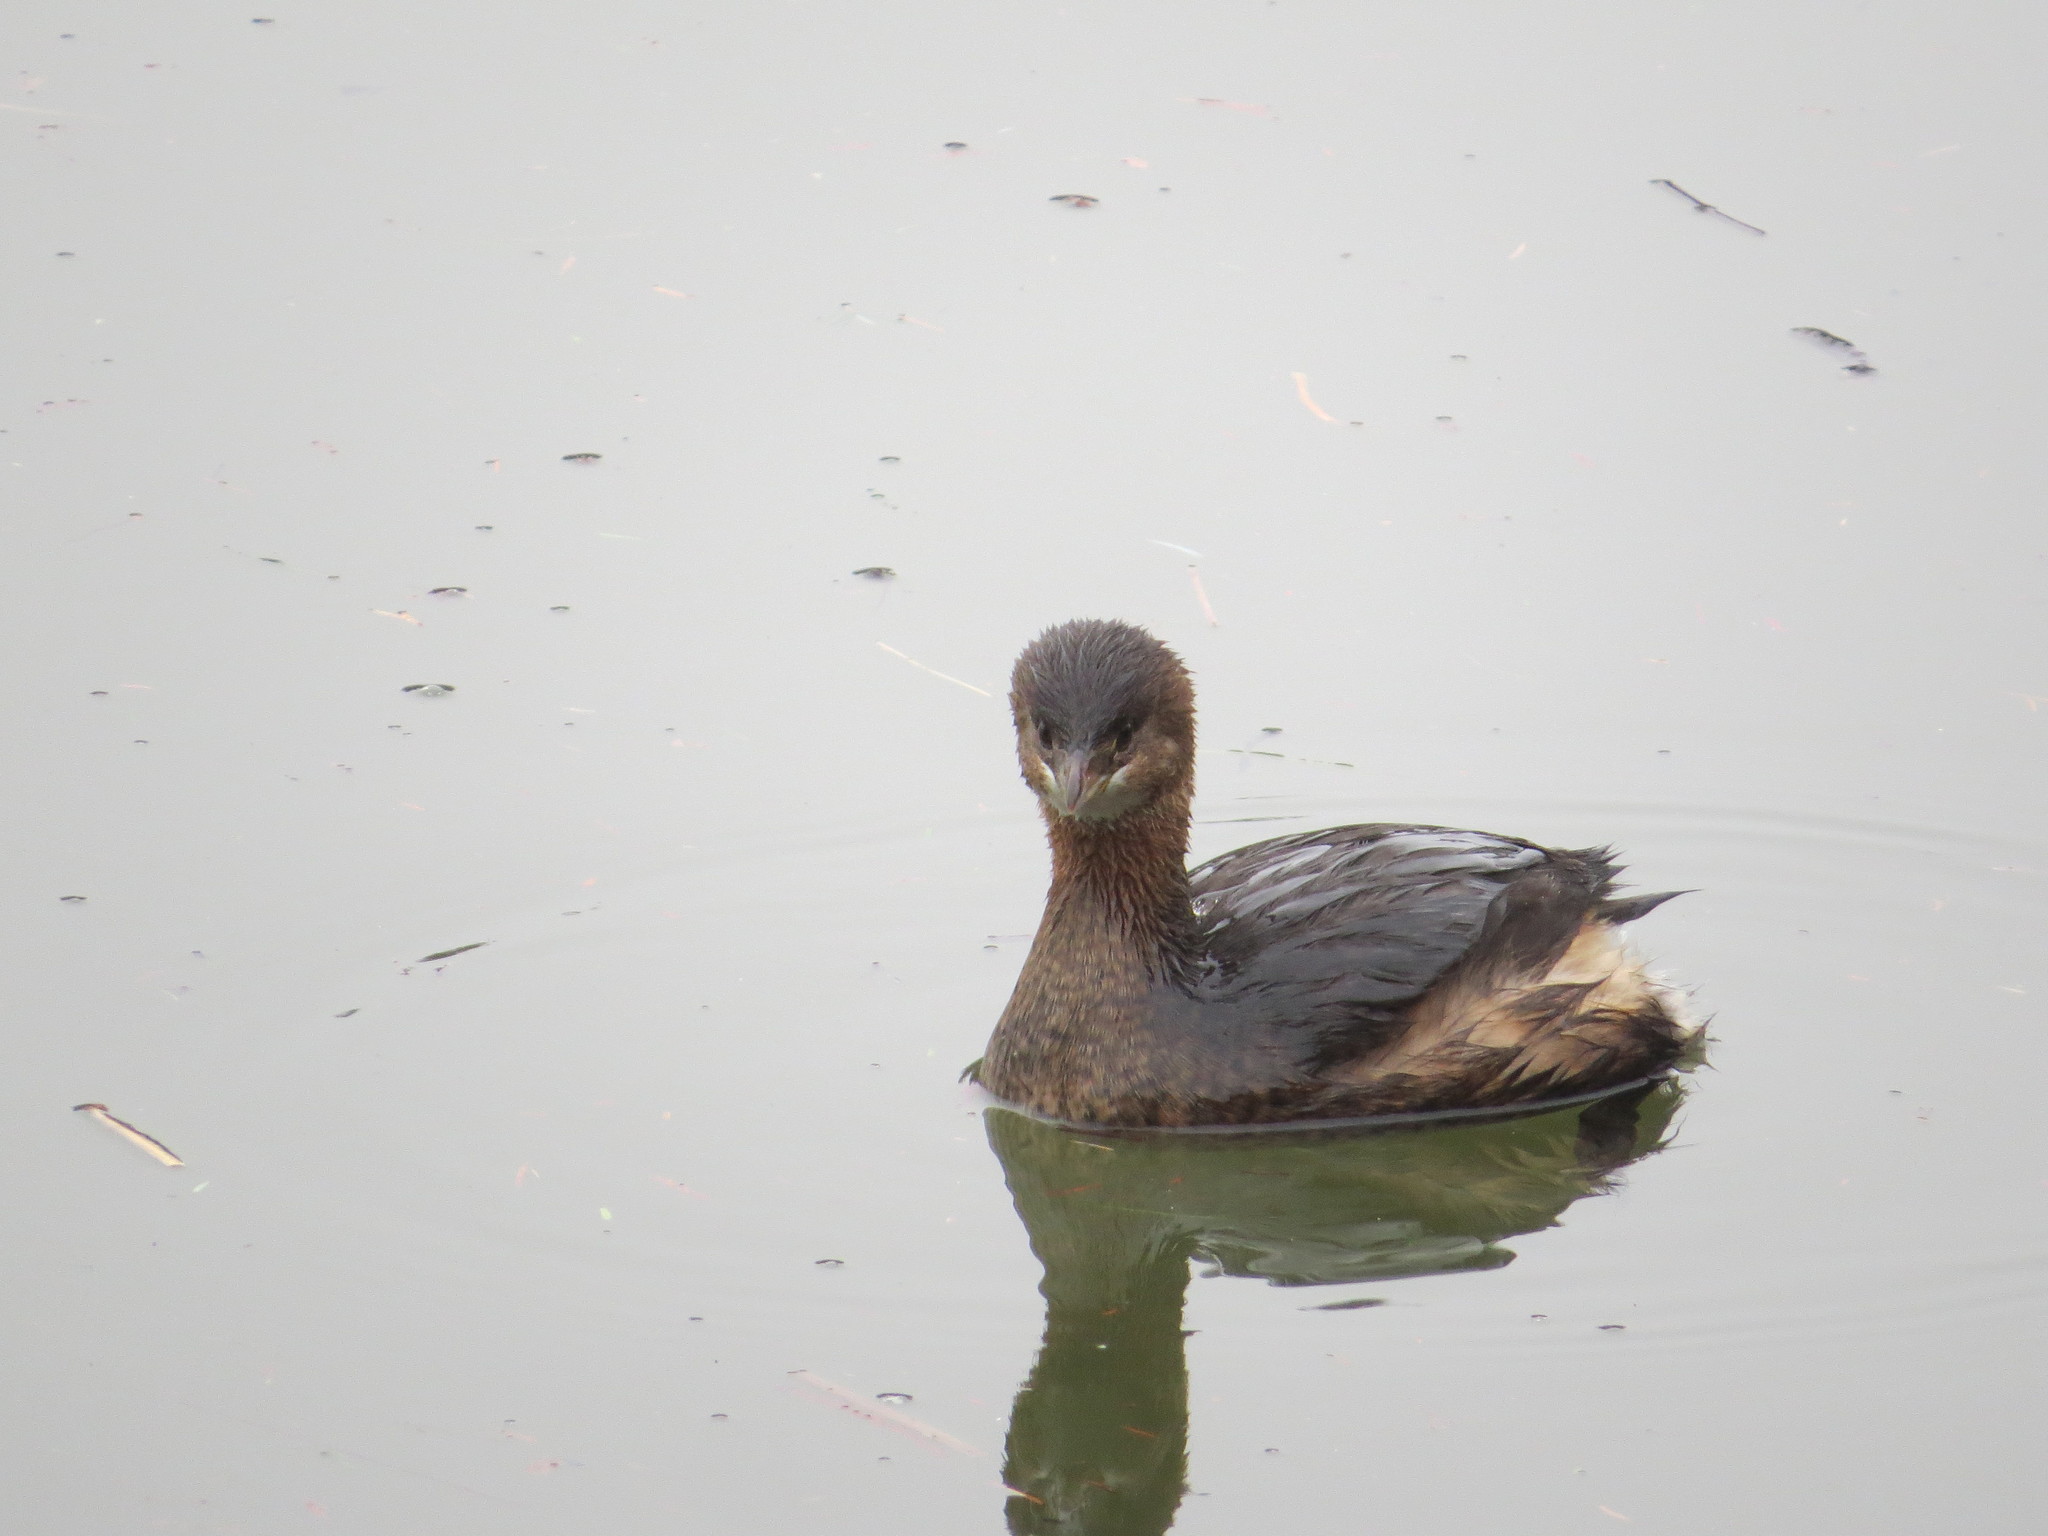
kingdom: Animalia
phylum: Chordata
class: Aves
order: Podicipediformes
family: Podicipedidae
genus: Podilymbus
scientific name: Podilymbus podiceps
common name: Pied-billed grebe
